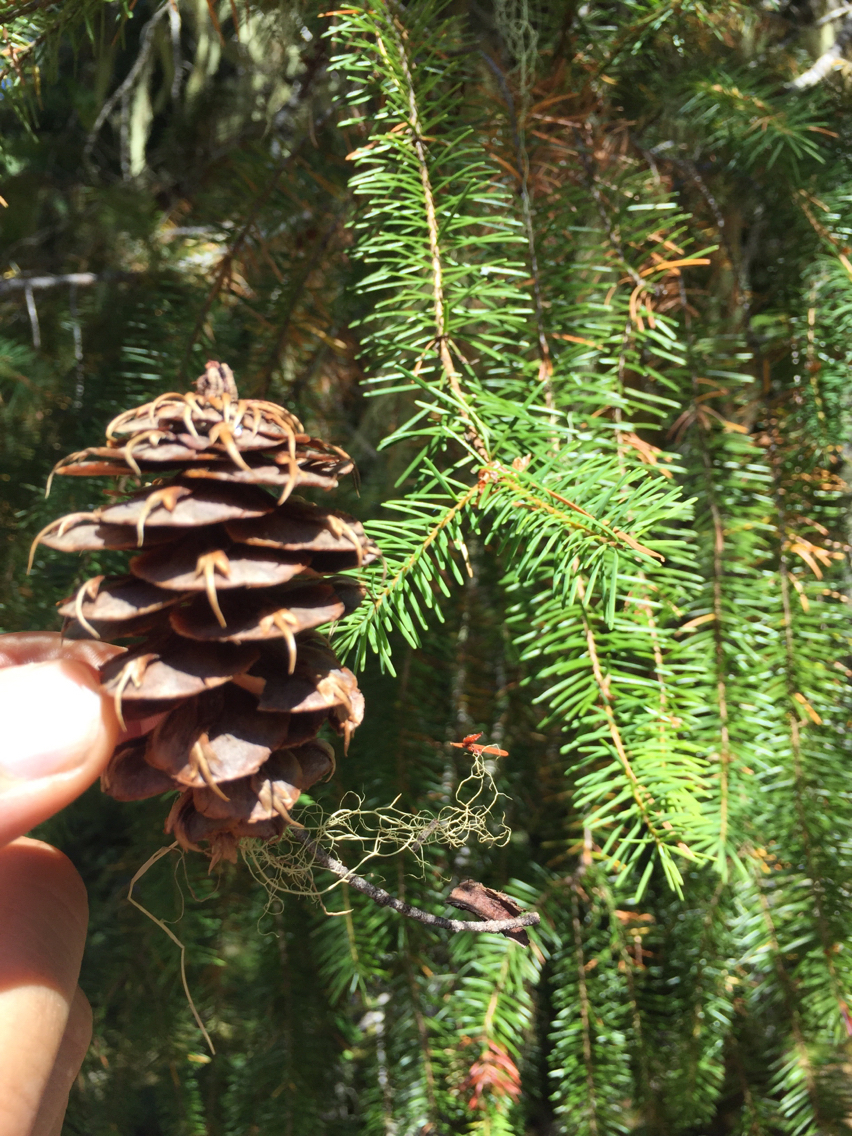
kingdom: Plantae
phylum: Tracheophyta
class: Pinopsida
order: Pinales
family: Pinaceae
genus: Pseudotsuga
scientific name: Pseudotsuga menziesii
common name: Douglas fir
